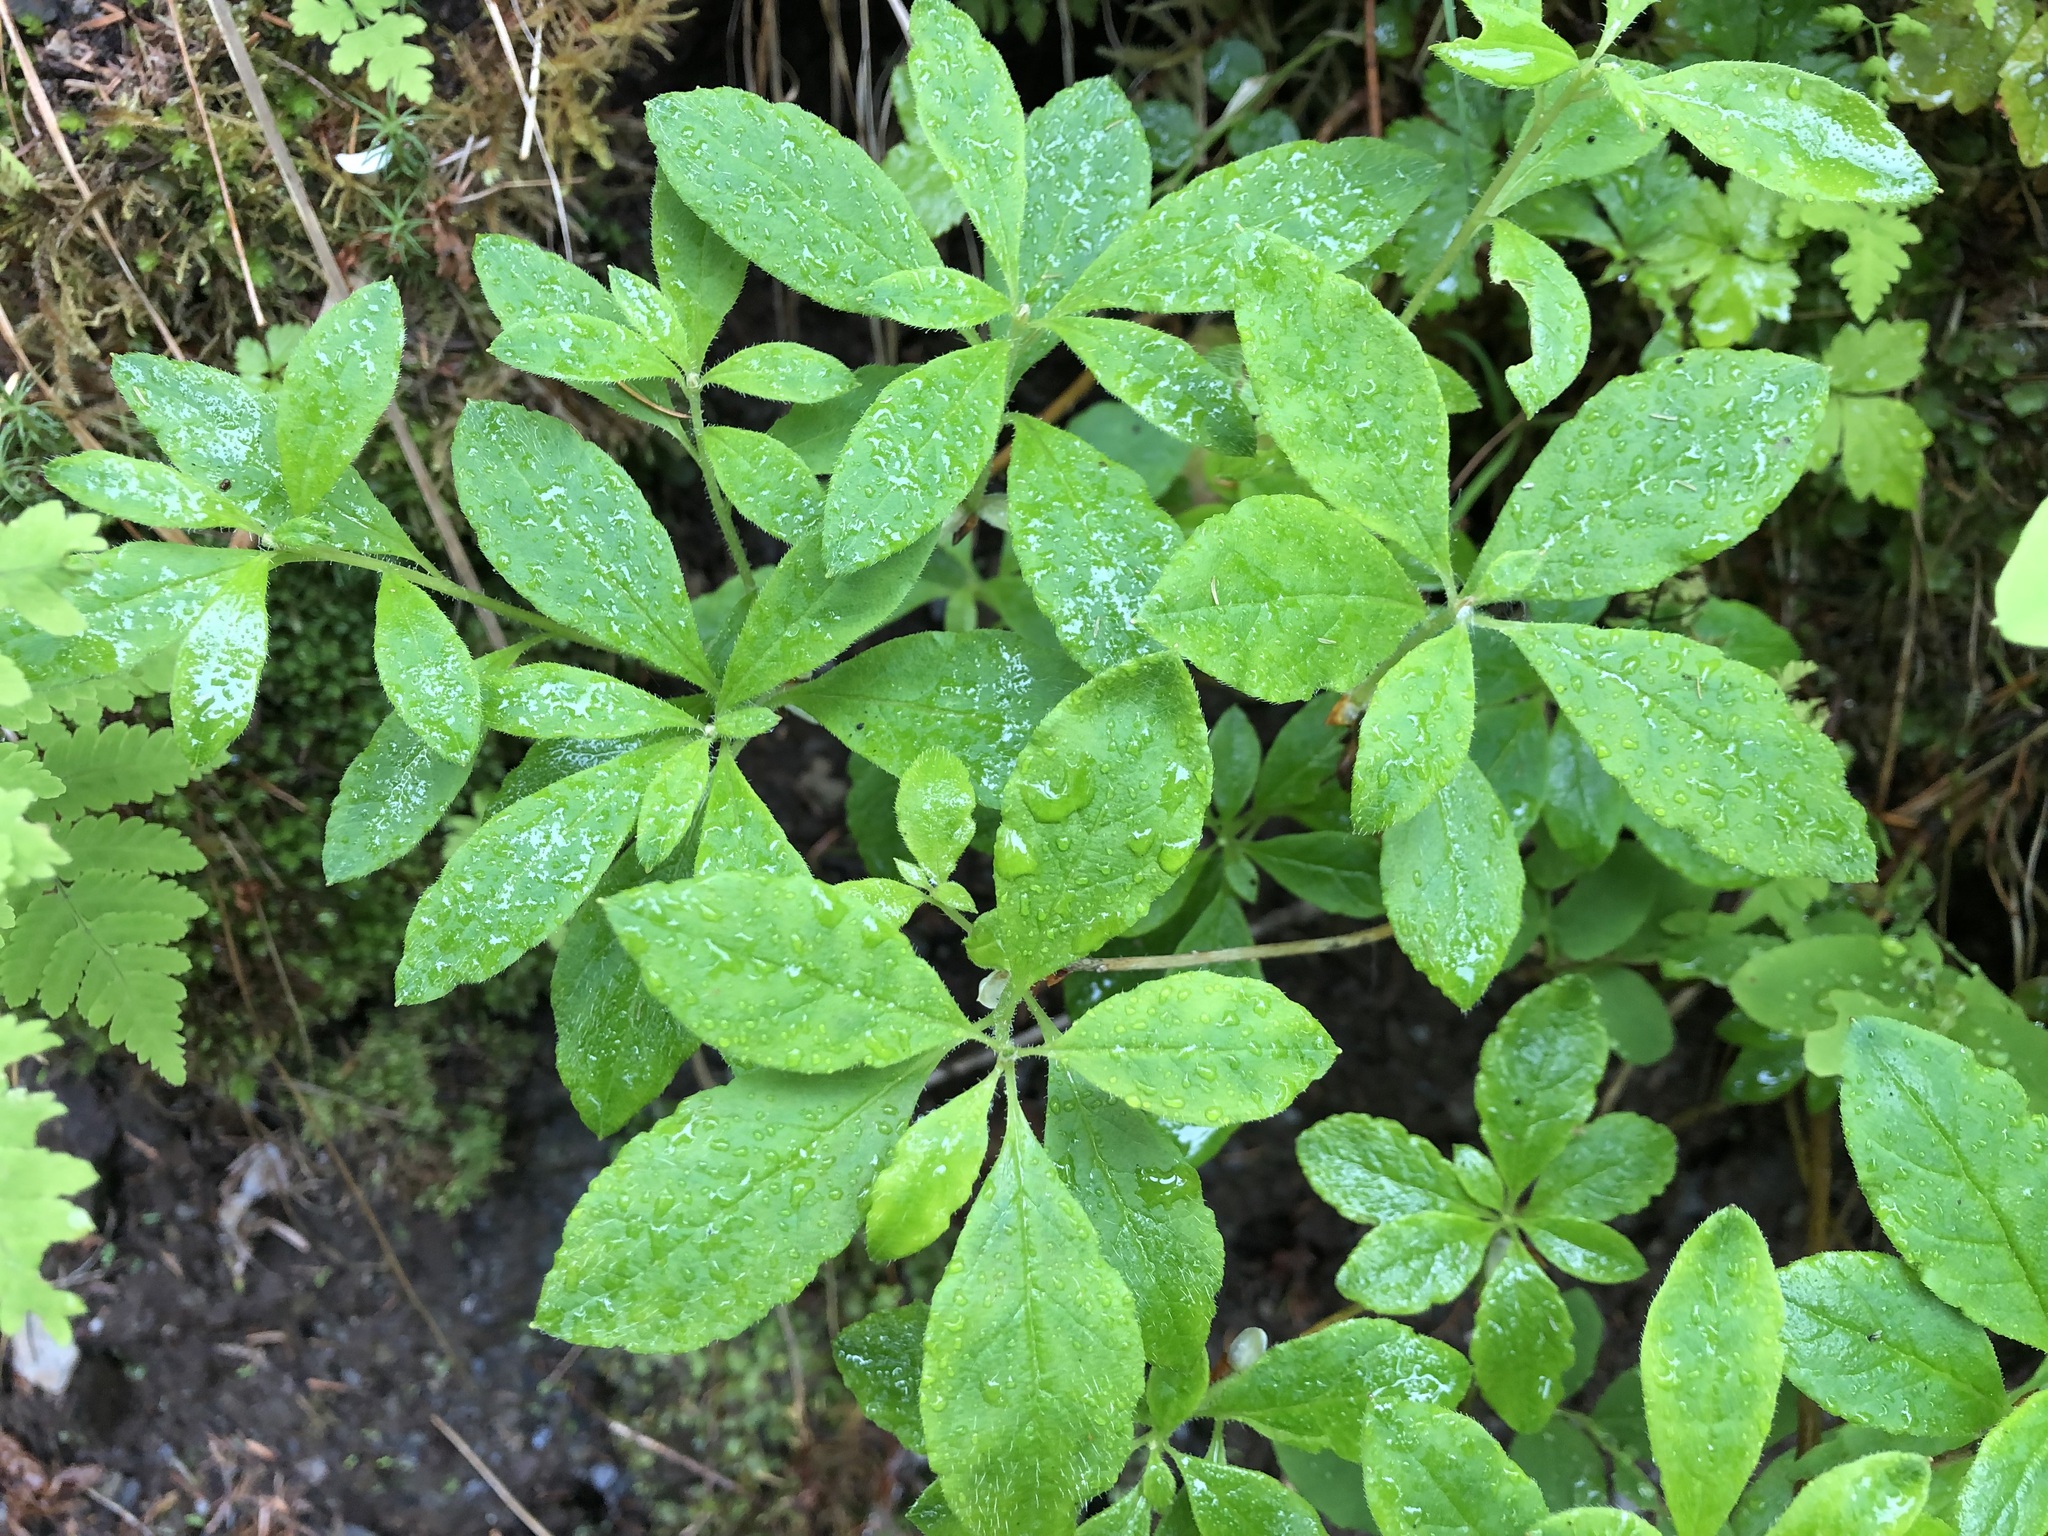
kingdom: Plantae
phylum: Tracheophyta
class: Magnoliopsida
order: Ericales
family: Ericaceae
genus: Rhododendron
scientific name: Rhododendron menziesii
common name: Pacific menziesia
